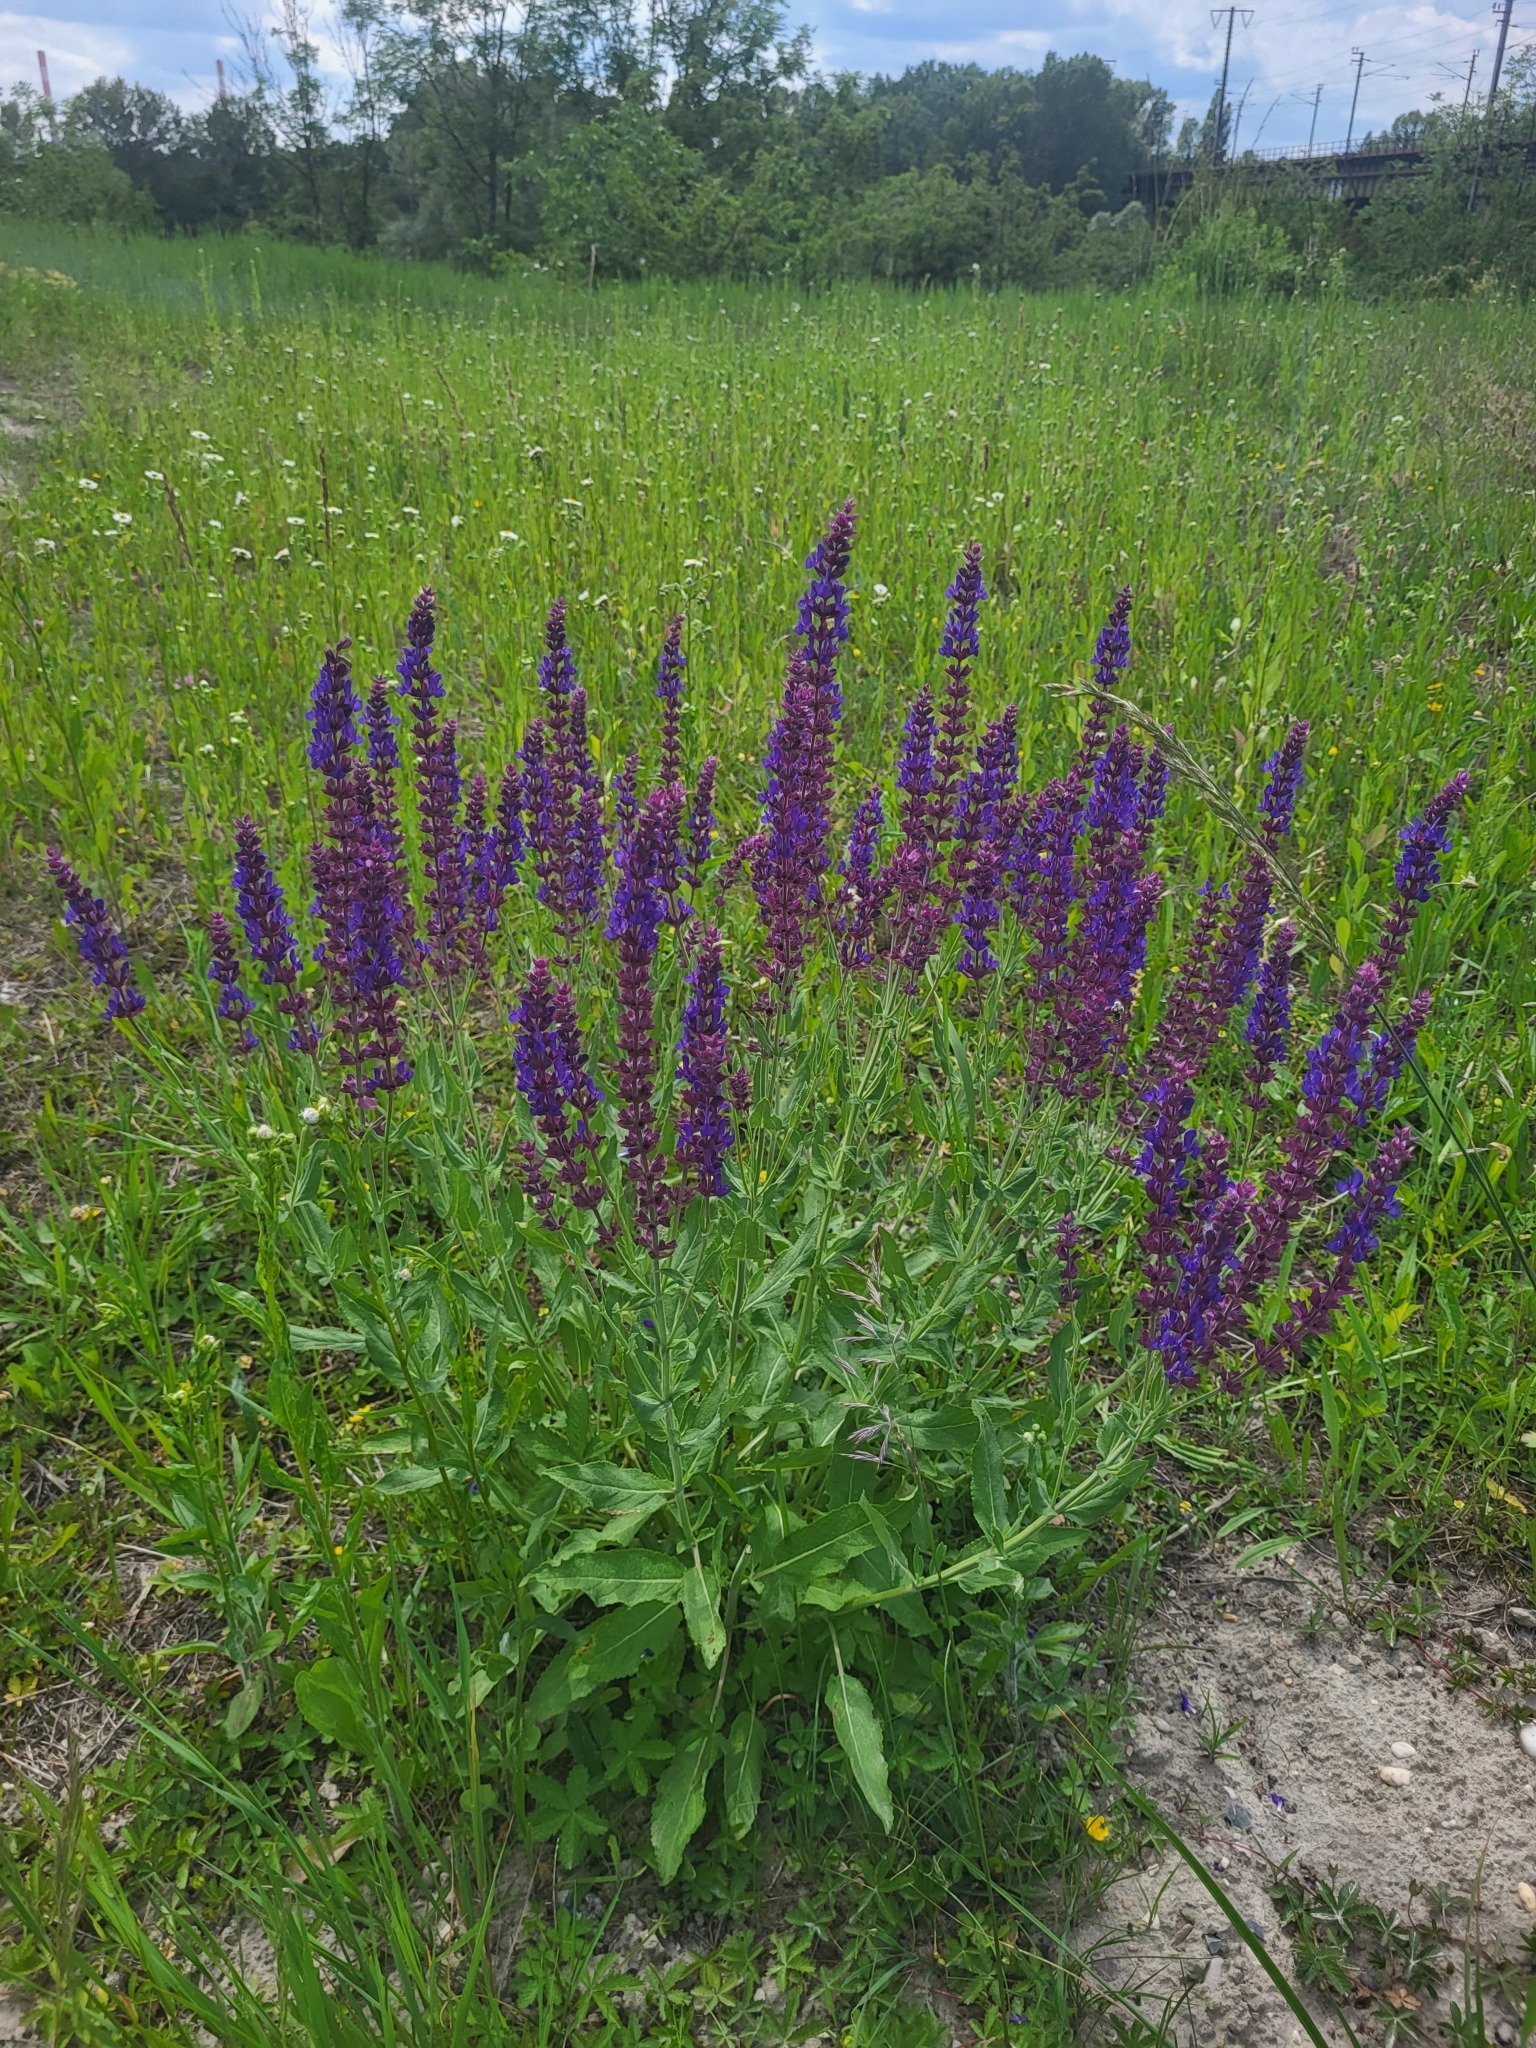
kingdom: Plantae
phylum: Tracheophyta
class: Magnoliopsida
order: Lamiales
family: Lamiaceae
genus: Salvia
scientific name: Salvia nemorosa
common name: Balkan clary
